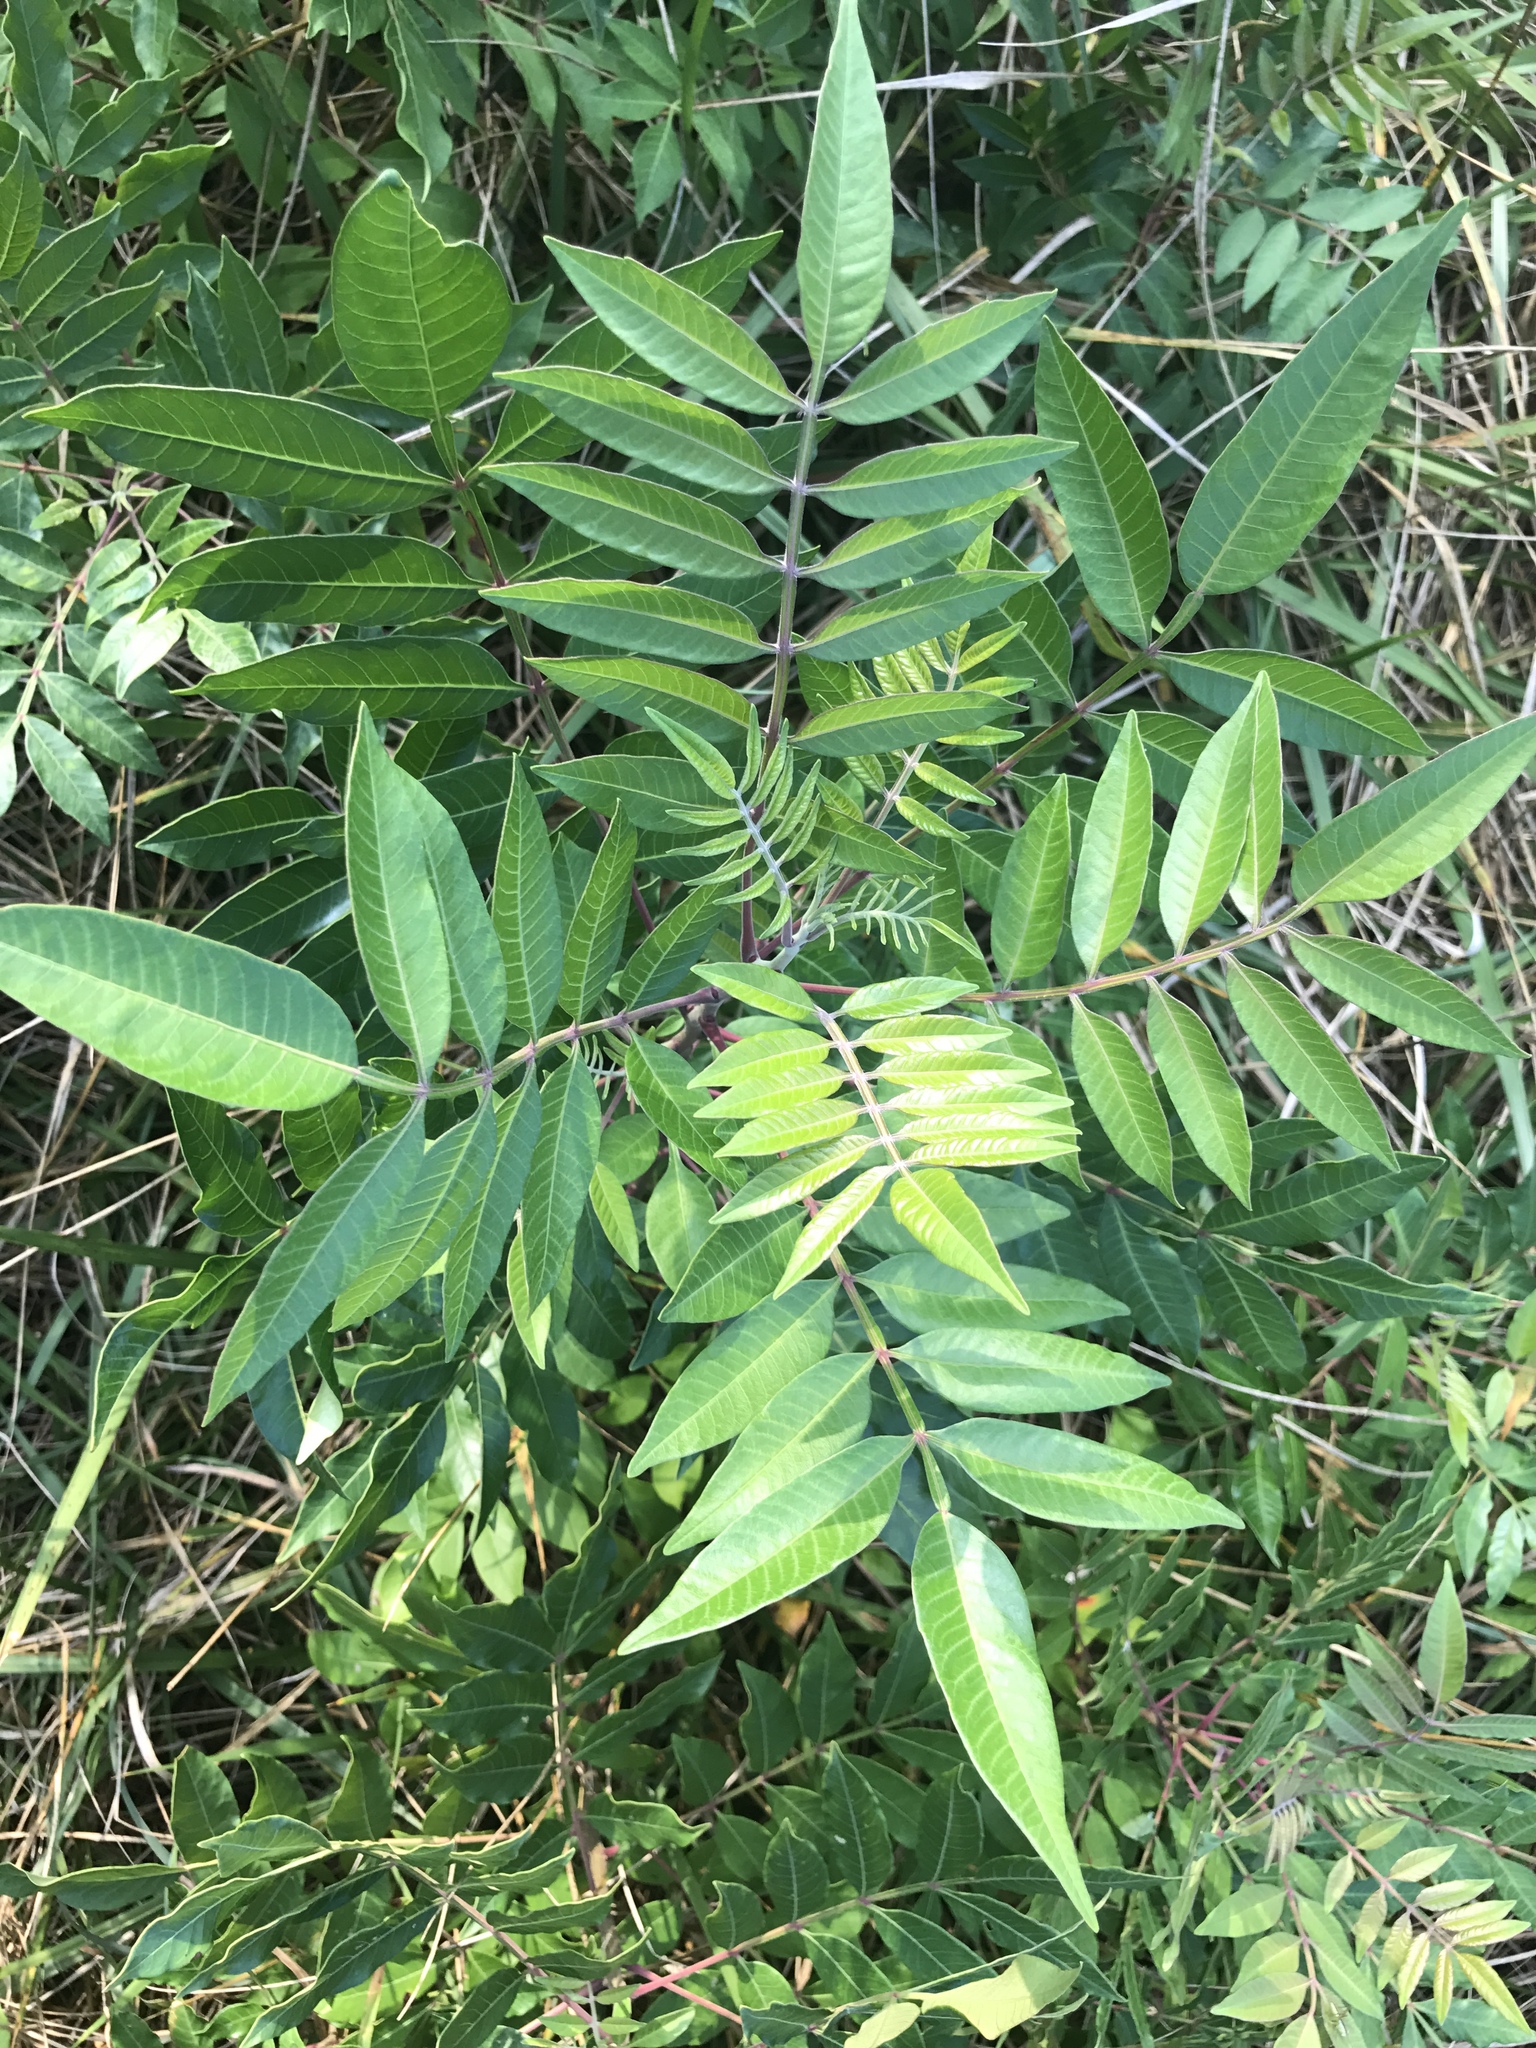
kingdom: Plantae
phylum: Tracheophyta
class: Magnoliopsida
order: Sapindales
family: Anacardiaceae
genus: Rhus
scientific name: Rhus copallina
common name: Shining sumac
